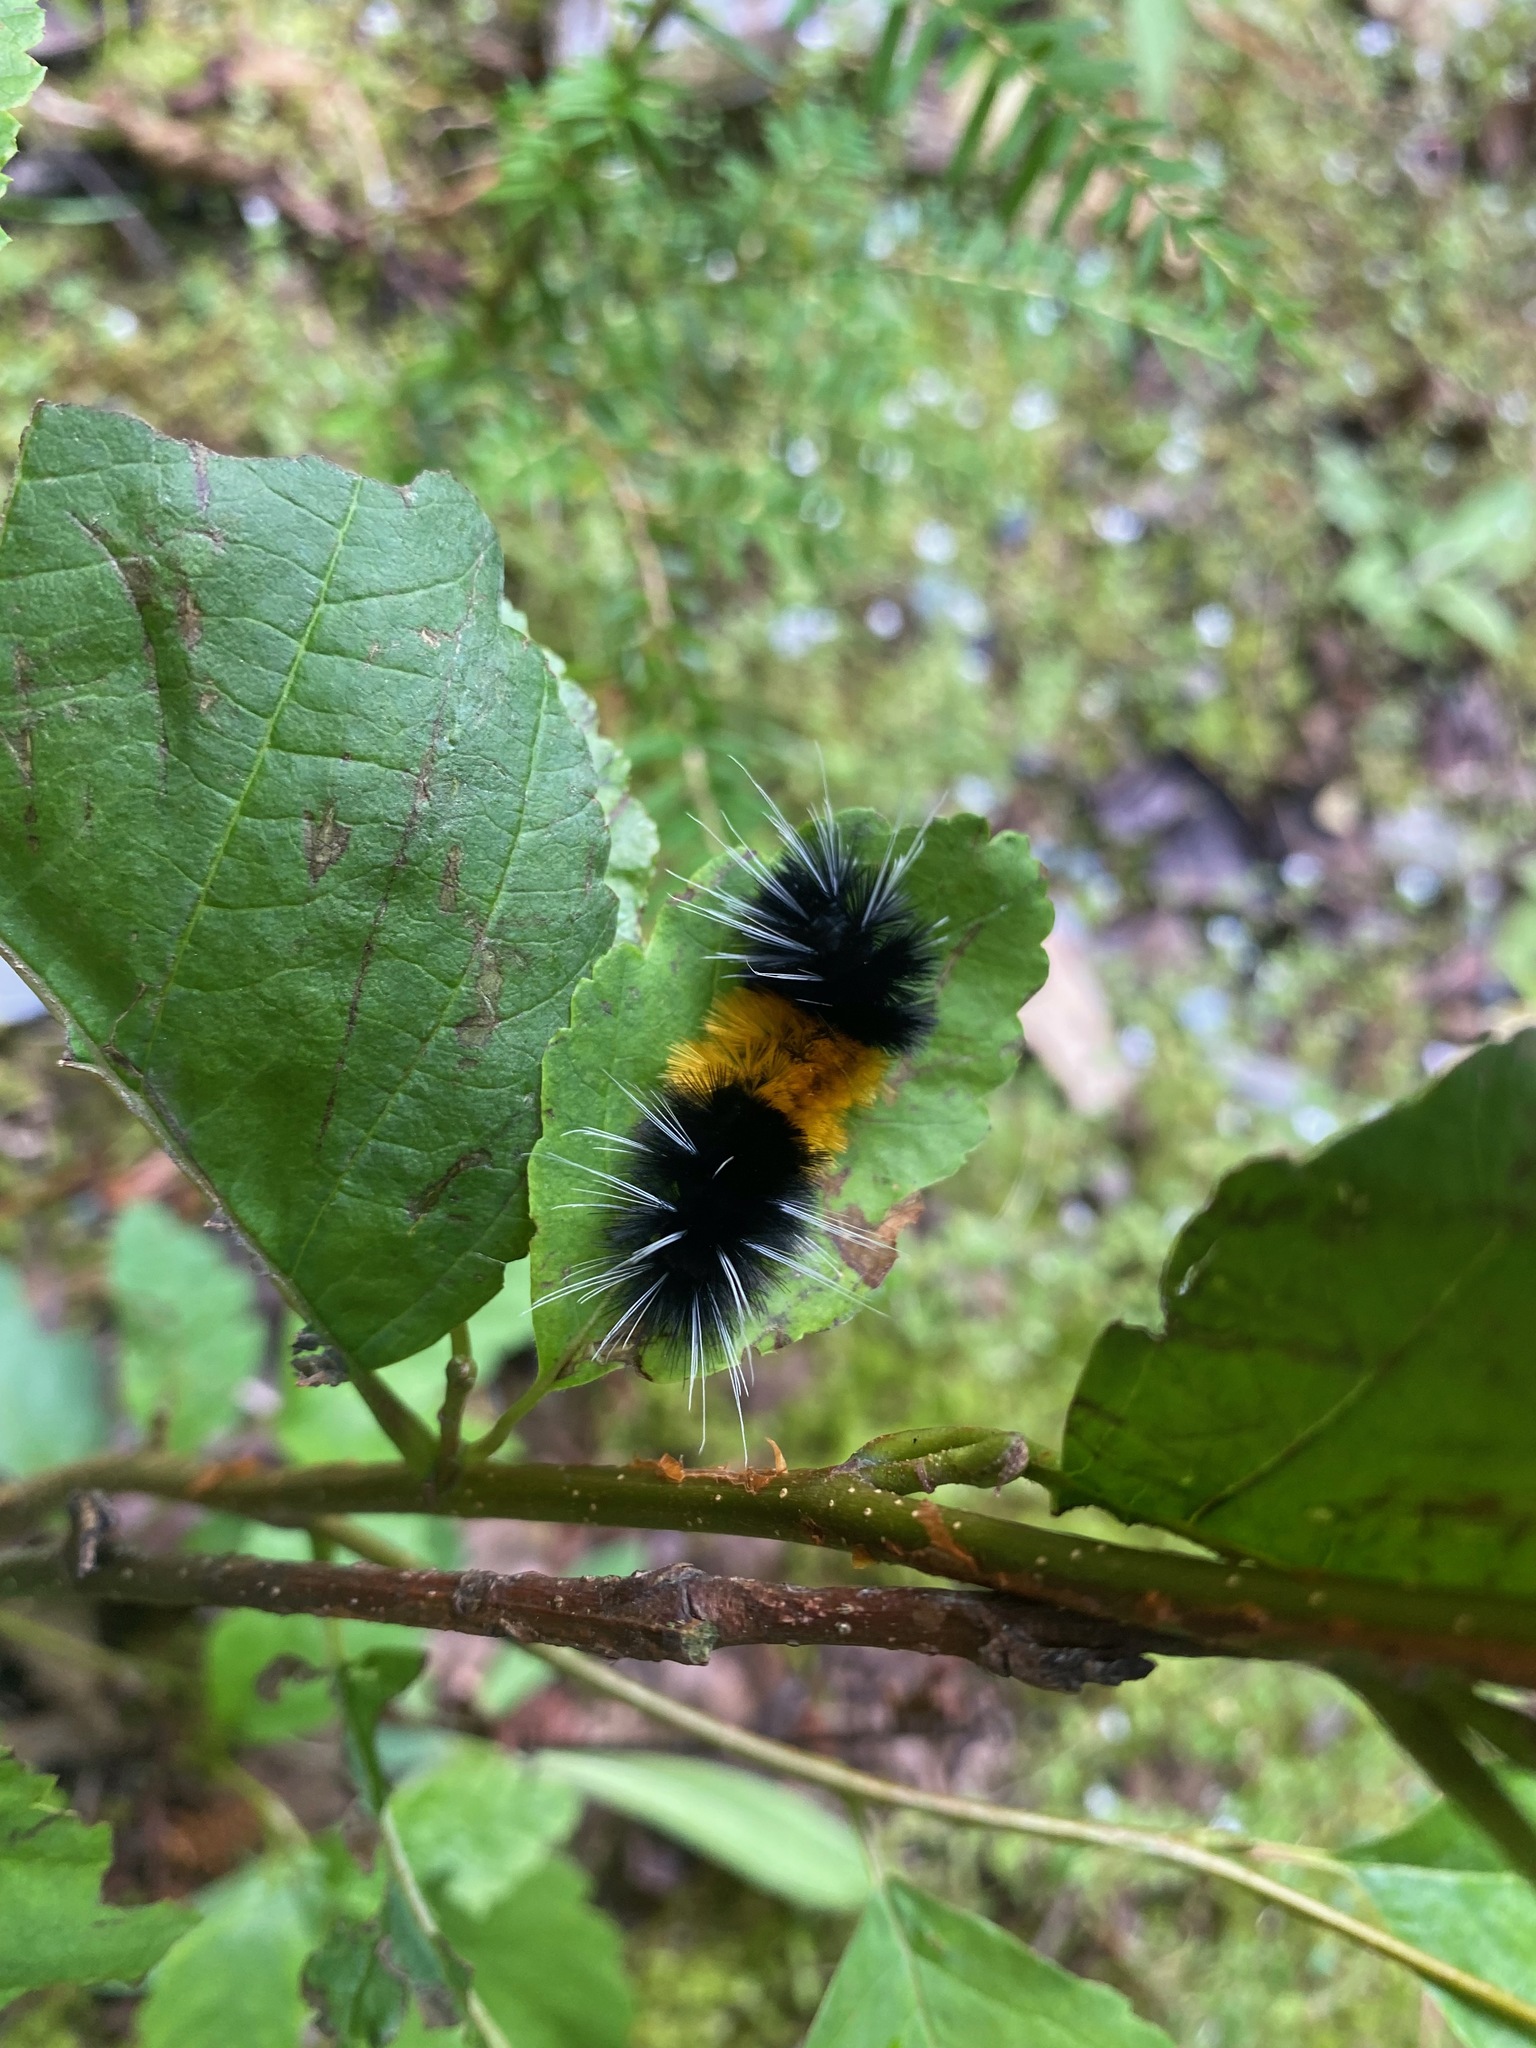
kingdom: Animalia
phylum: Arthropoda
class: Insecta
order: Lepidoptera
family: Erebidae
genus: Lophocampa
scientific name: Lophocampa maculata
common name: Spotted tussock moth
